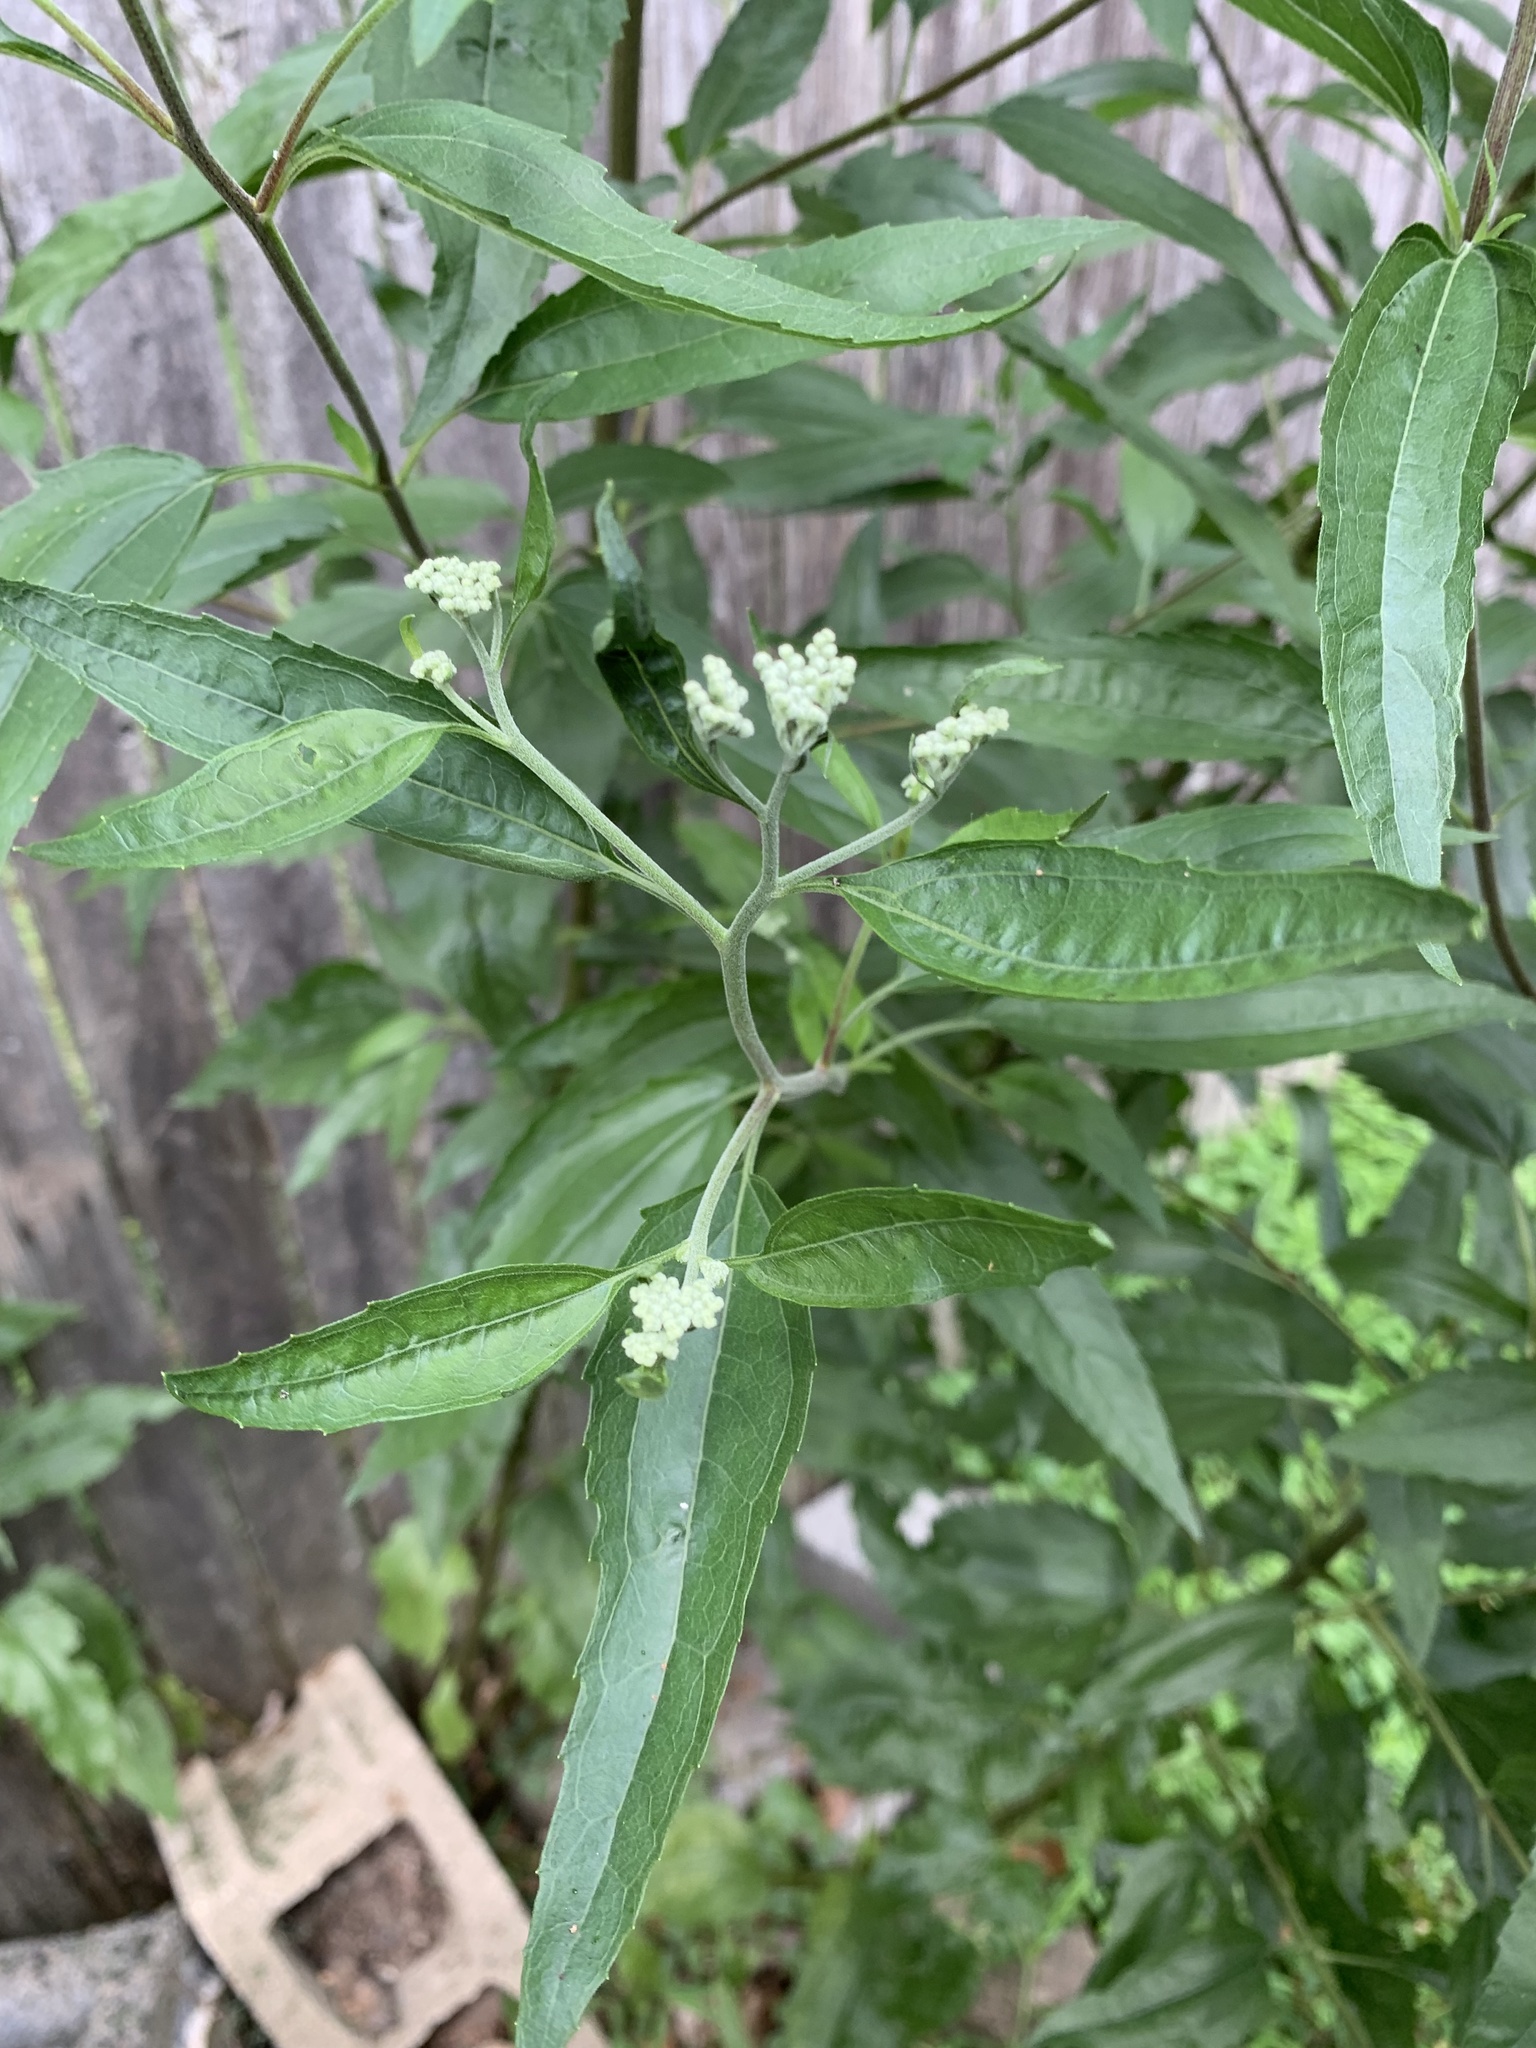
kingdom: Plantae
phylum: Tracheophyta
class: Magnoliopsida
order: Asterales
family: Asteraceae
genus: Eupatorium
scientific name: Eupatorium serotinum
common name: Late boneset
